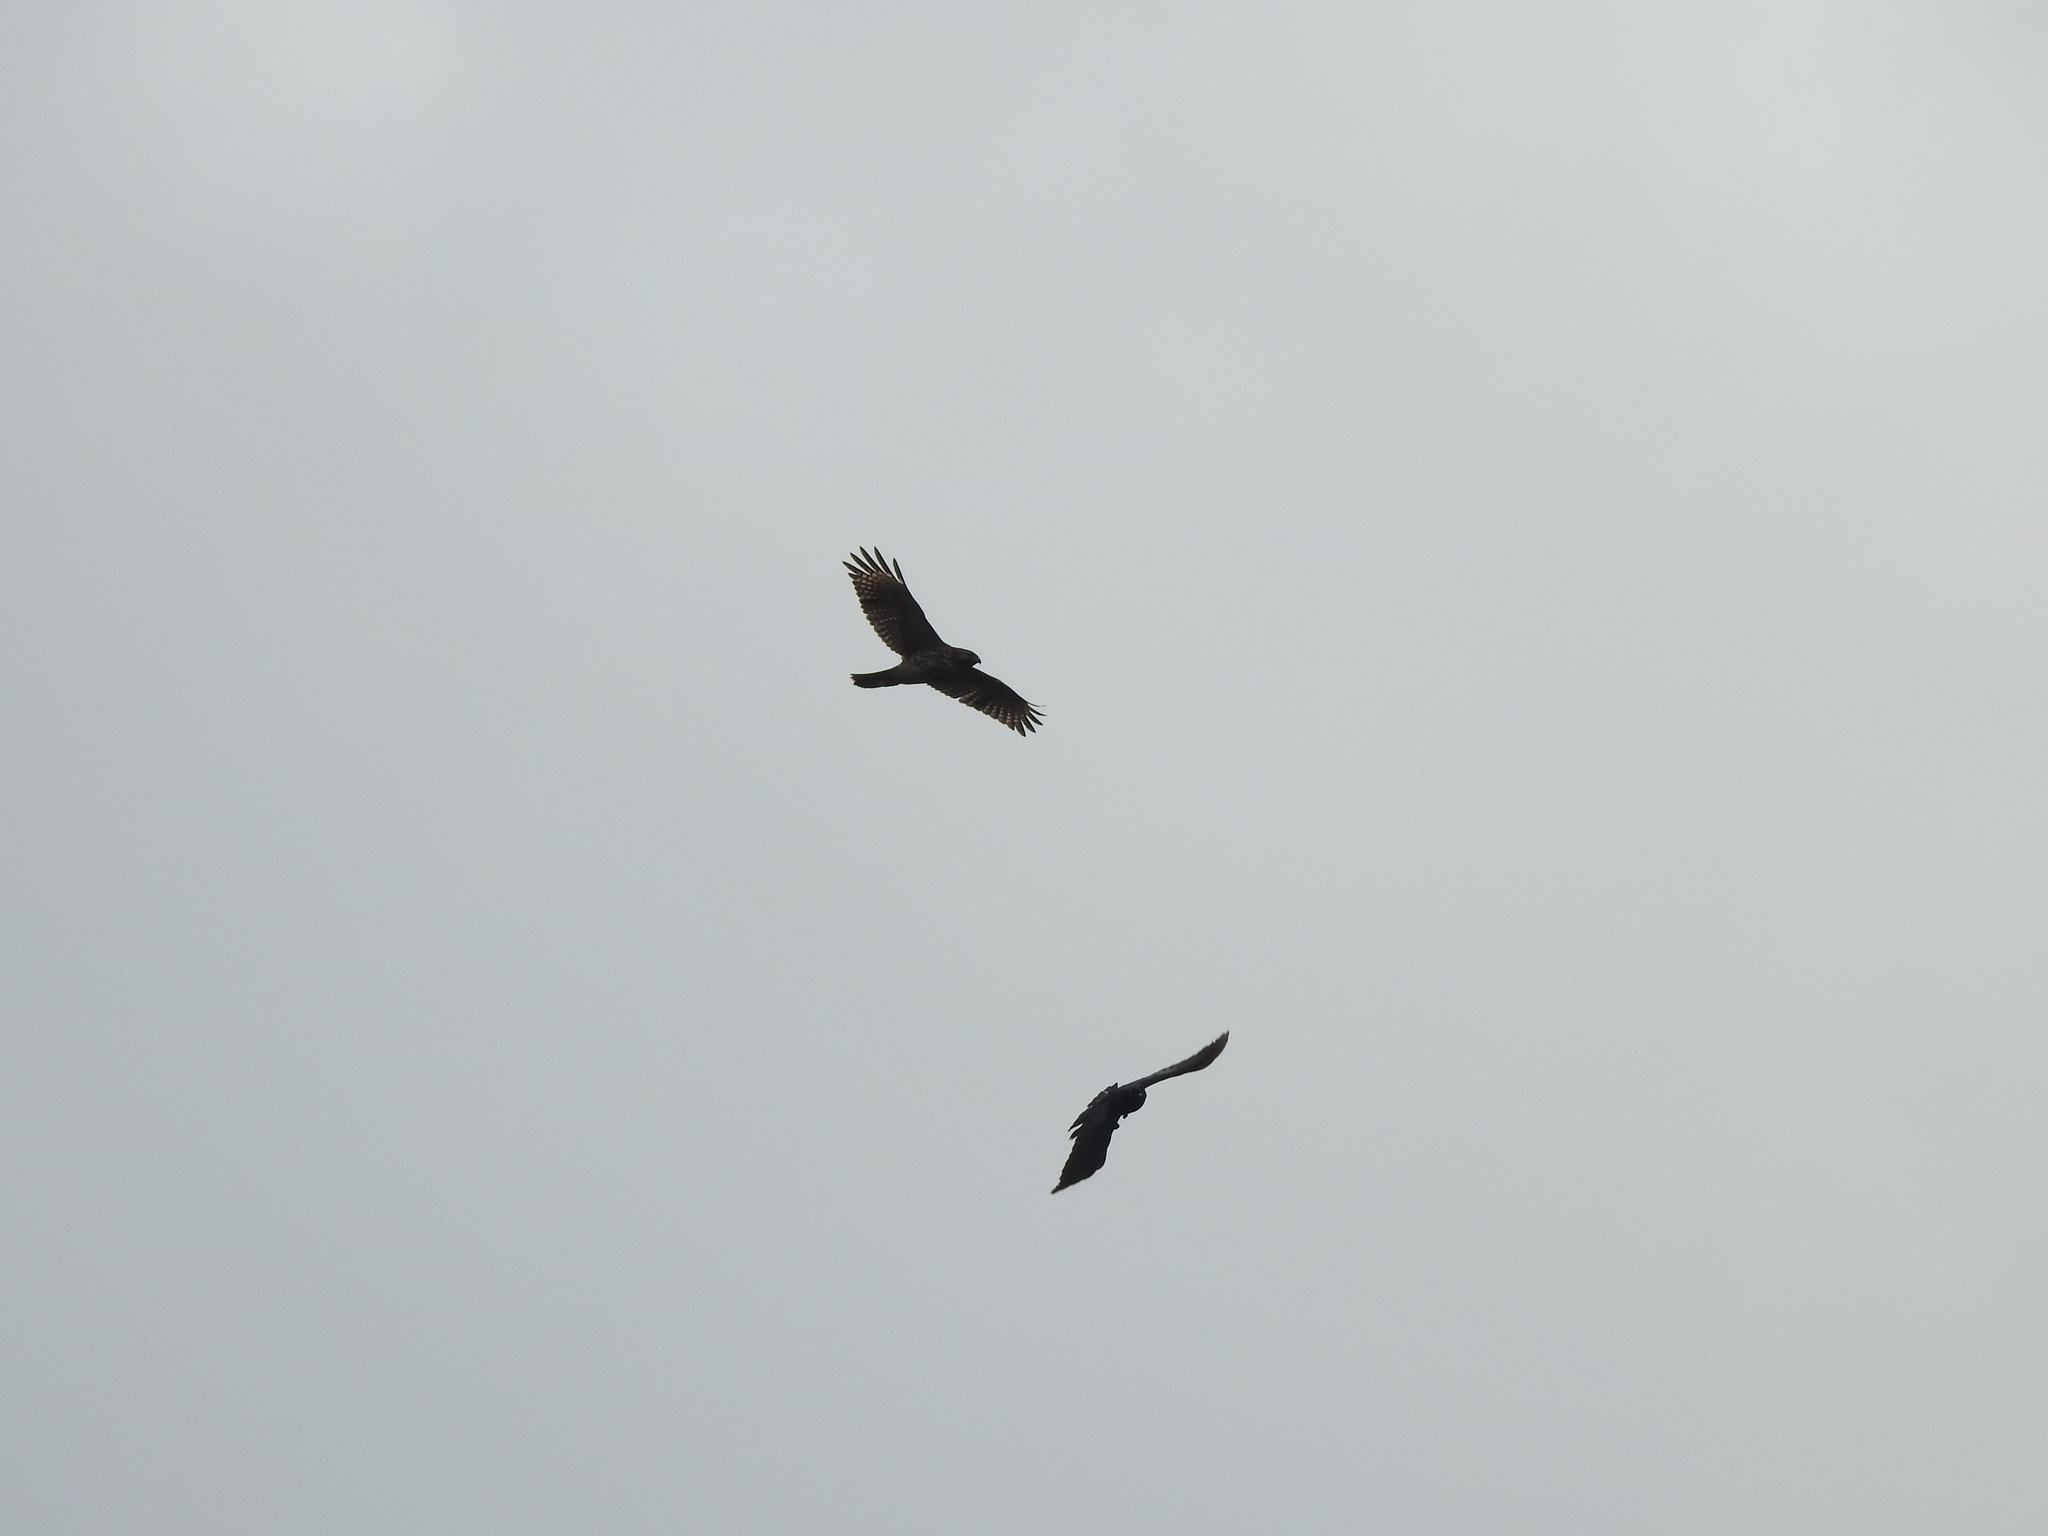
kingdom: Animalia
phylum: Chordata
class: Aves
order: Accipitriformes
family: Accipitridae
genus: Buteo
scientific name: Buteo lineatus
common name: Red-shouldered hawk
